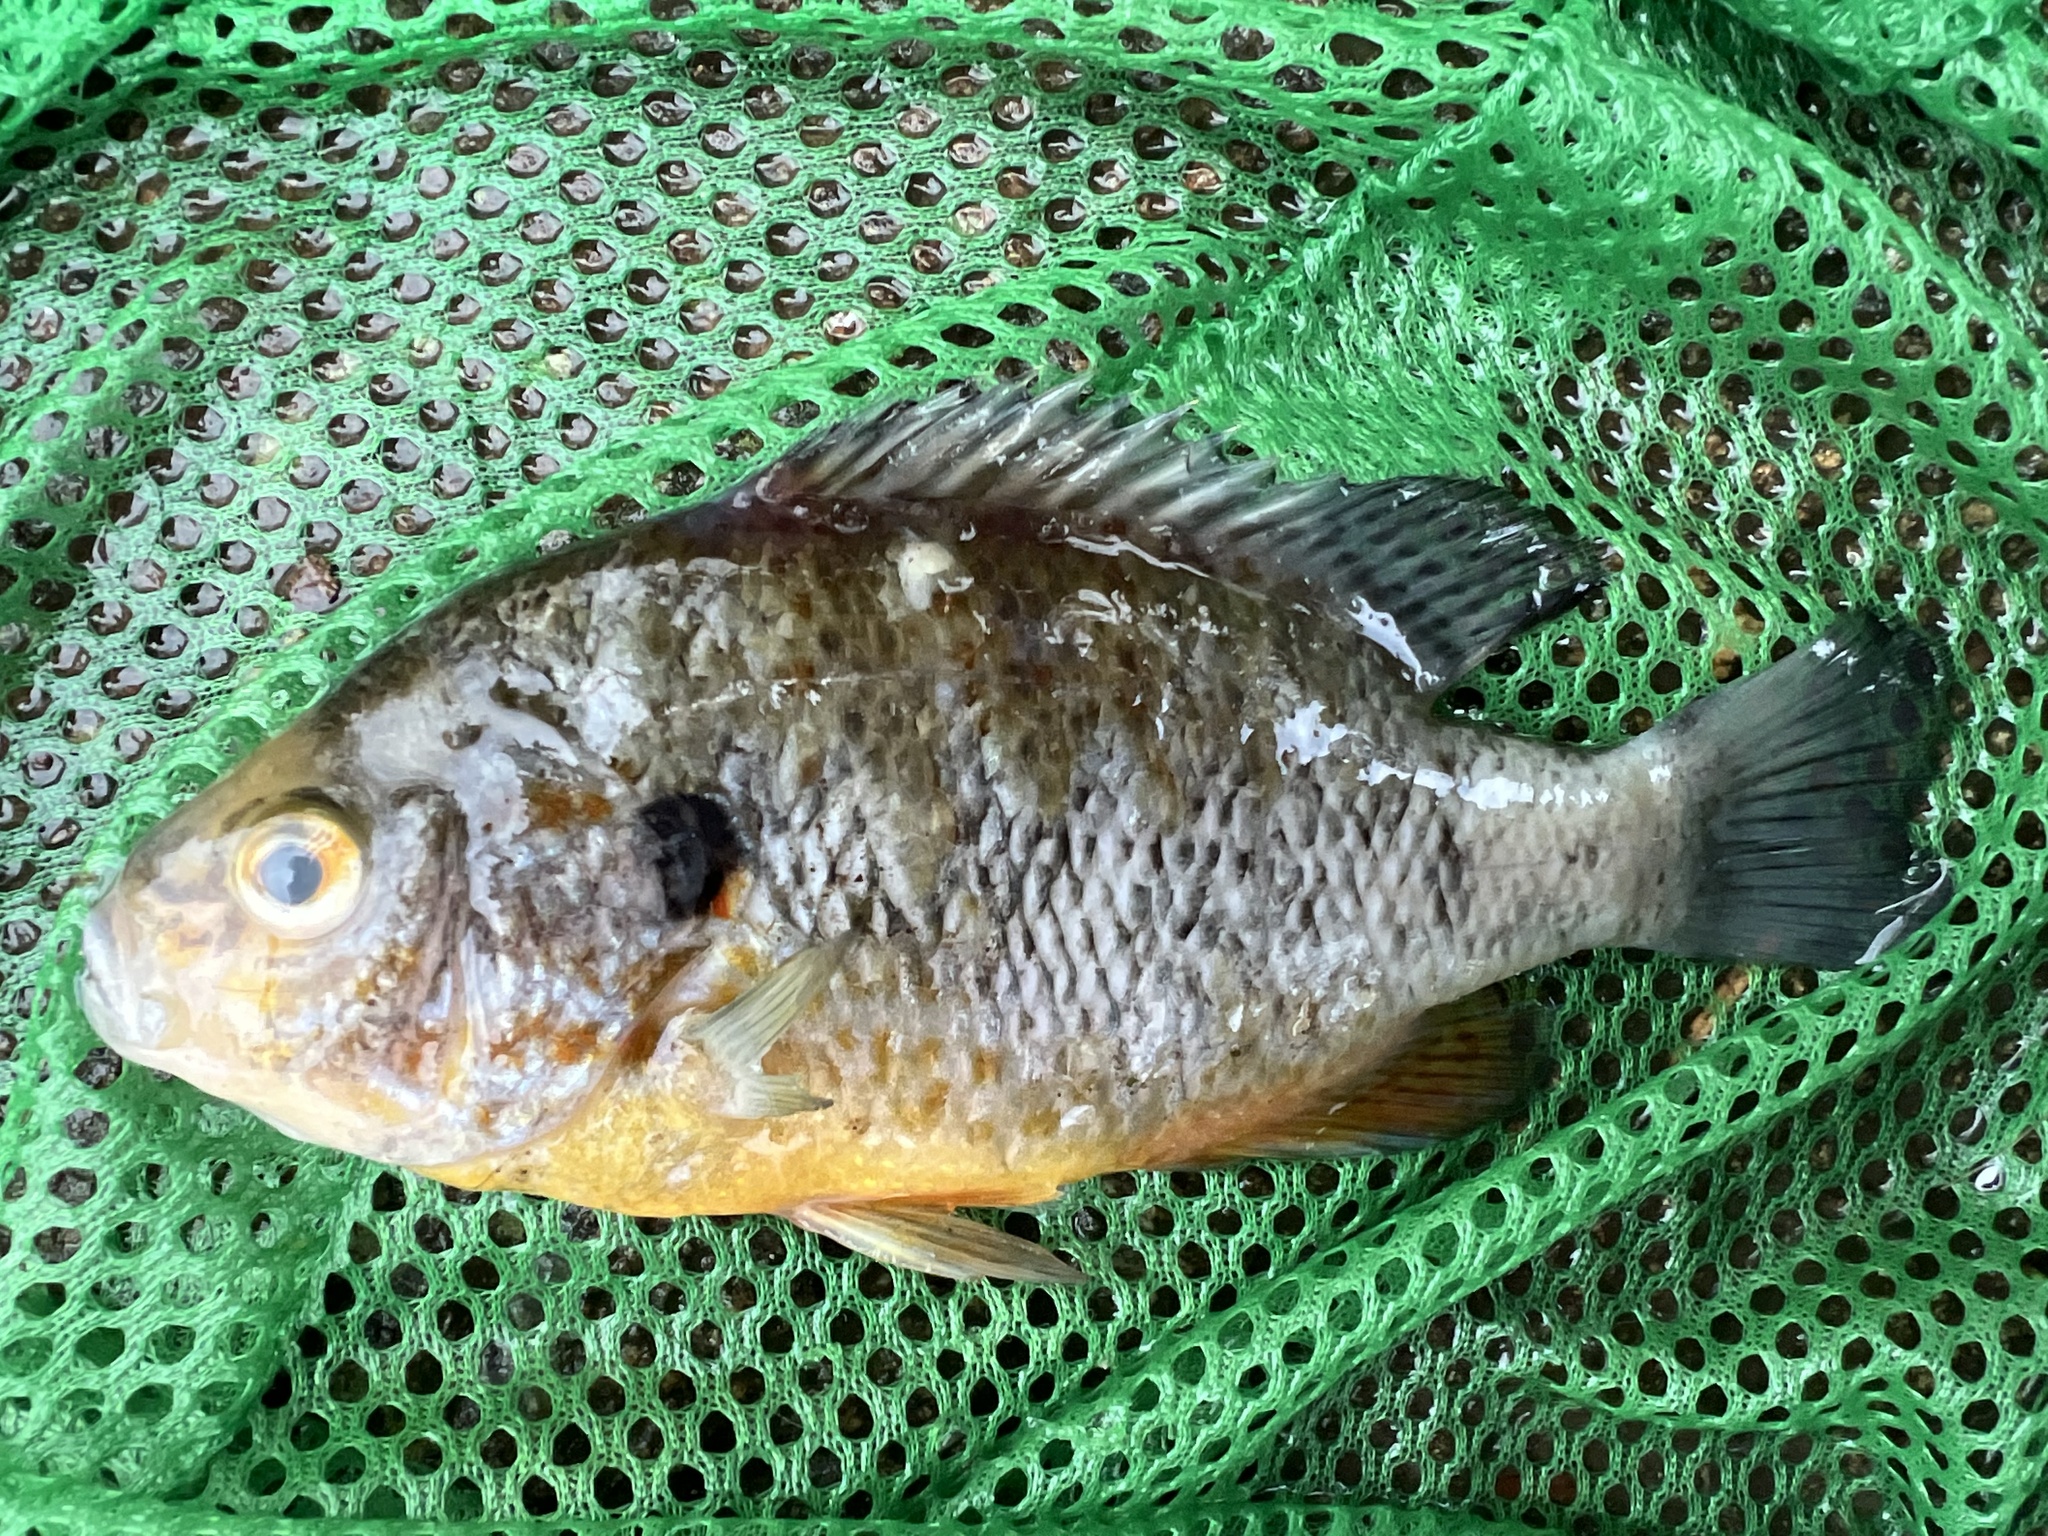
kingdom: Animalia
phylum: Chordata
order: Perciformes
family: Centrarchidae
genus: Lepomis
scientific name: Lepomis gibbosus
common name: Pumpkinseed
